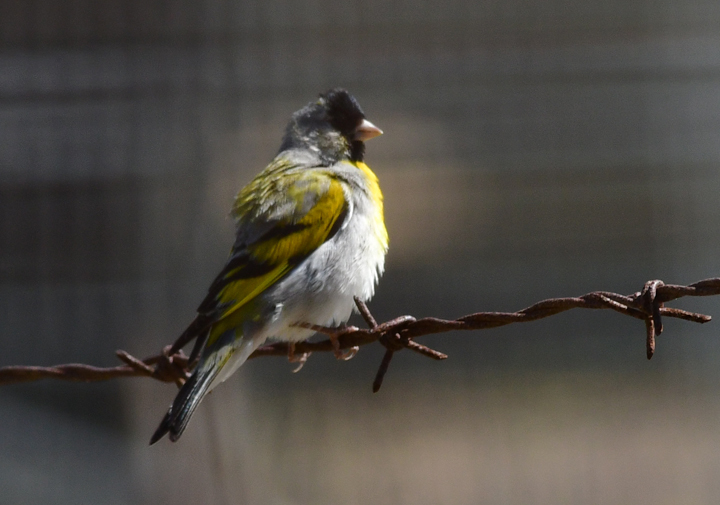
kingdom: Animalia
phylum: Chordata
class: Aves
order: Passeriformes
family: Fringillidae
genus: Spinus
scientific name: Spinus lawrencei
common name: Lawrence's goldfinch
